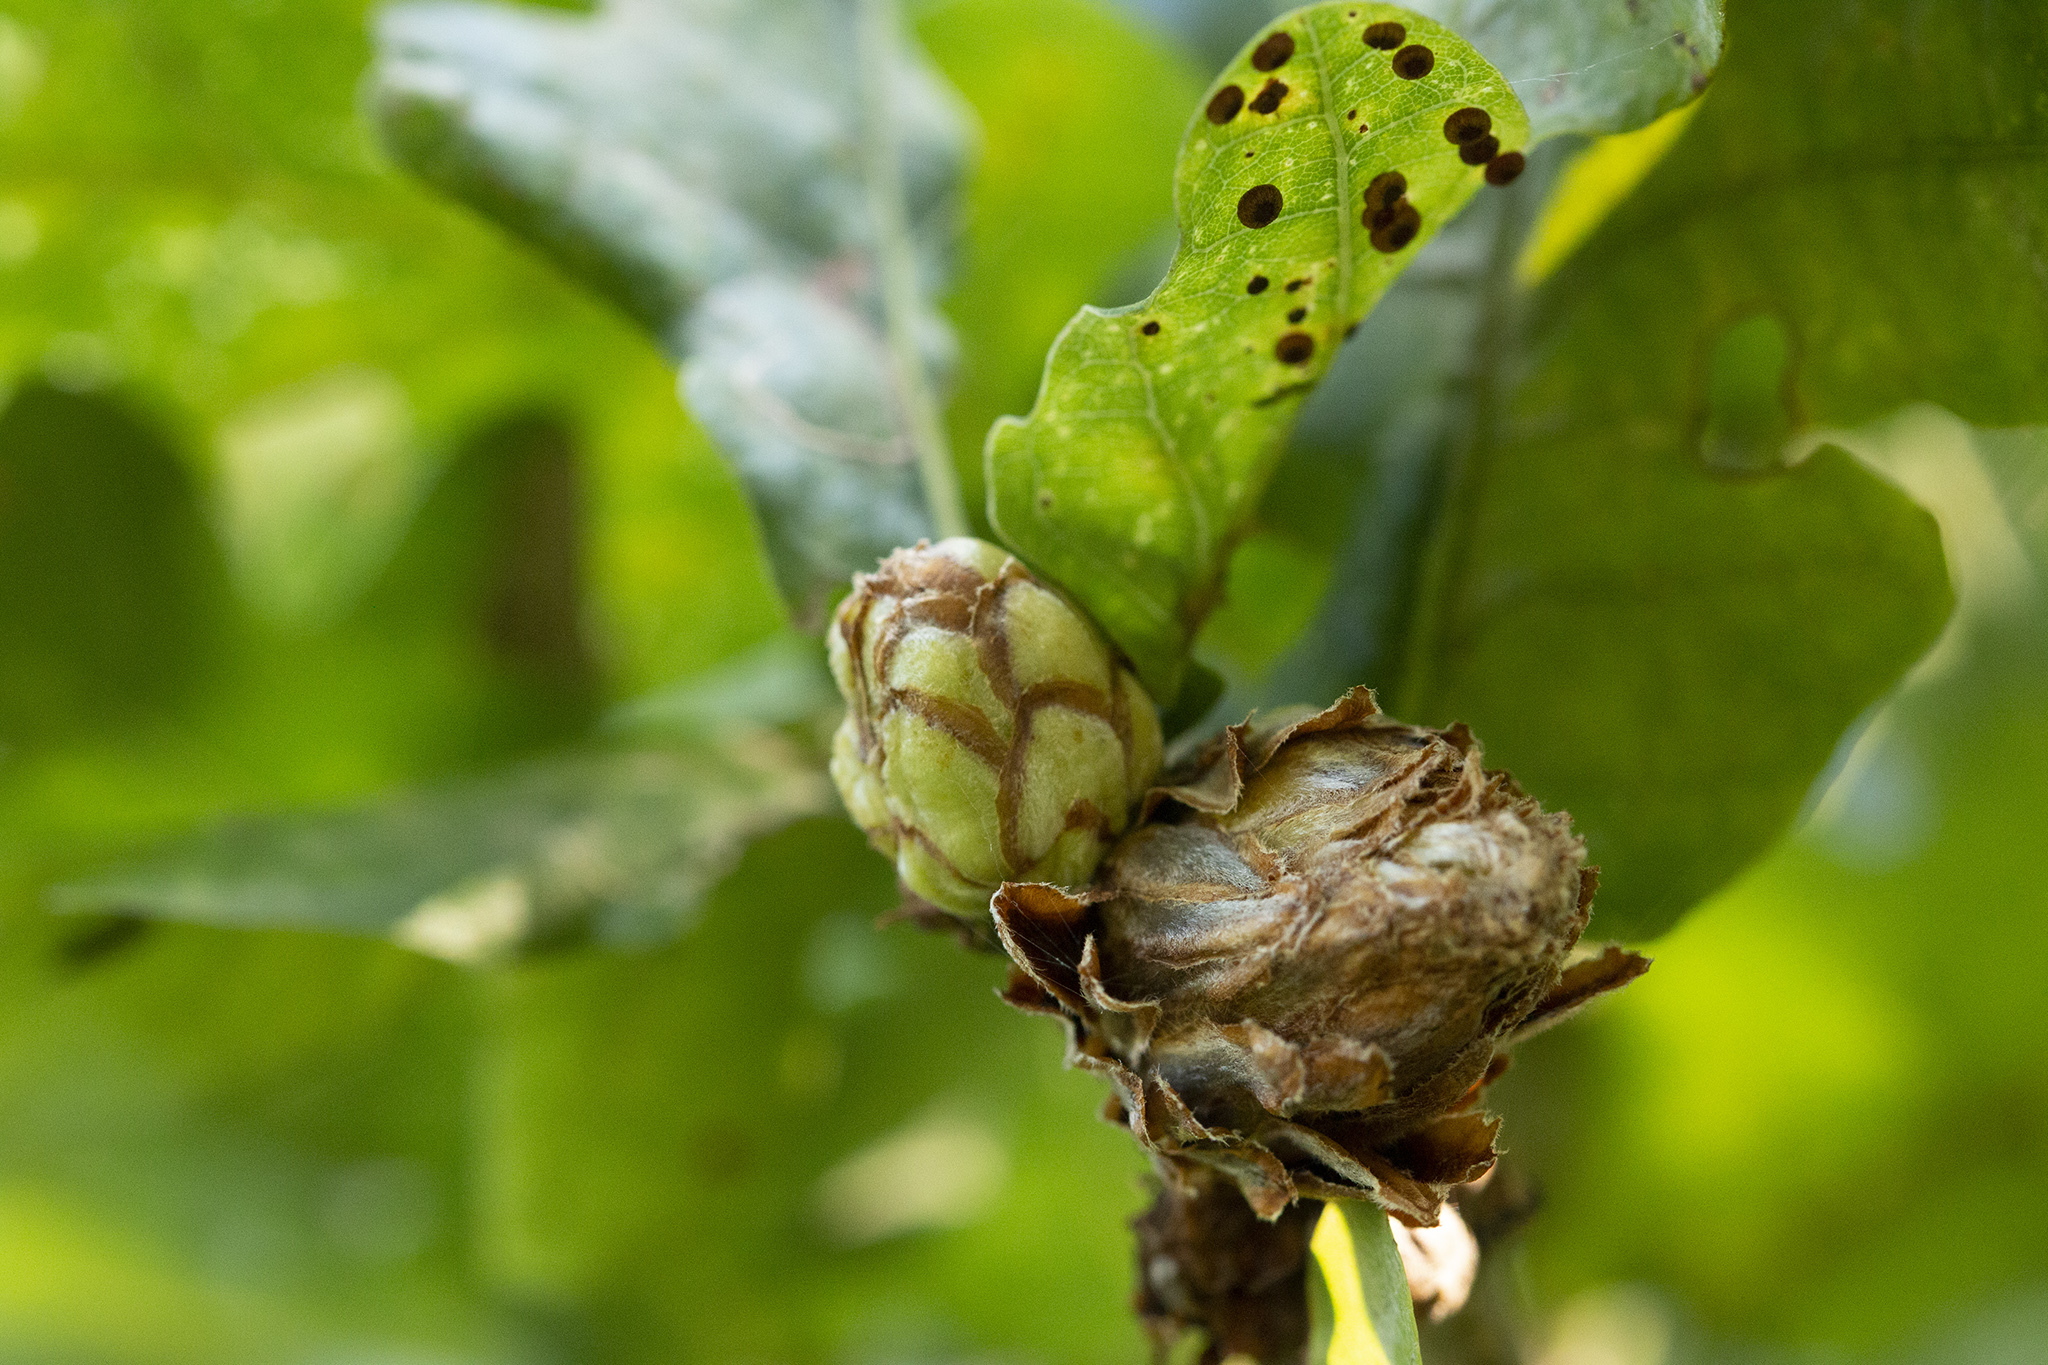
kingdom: Animalia
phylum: Arthropoda
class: Insecta
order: Hymenoptera
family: Cynipidae
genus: Andricus
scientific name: Andricus foecundatrix
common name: Artichoke gall
